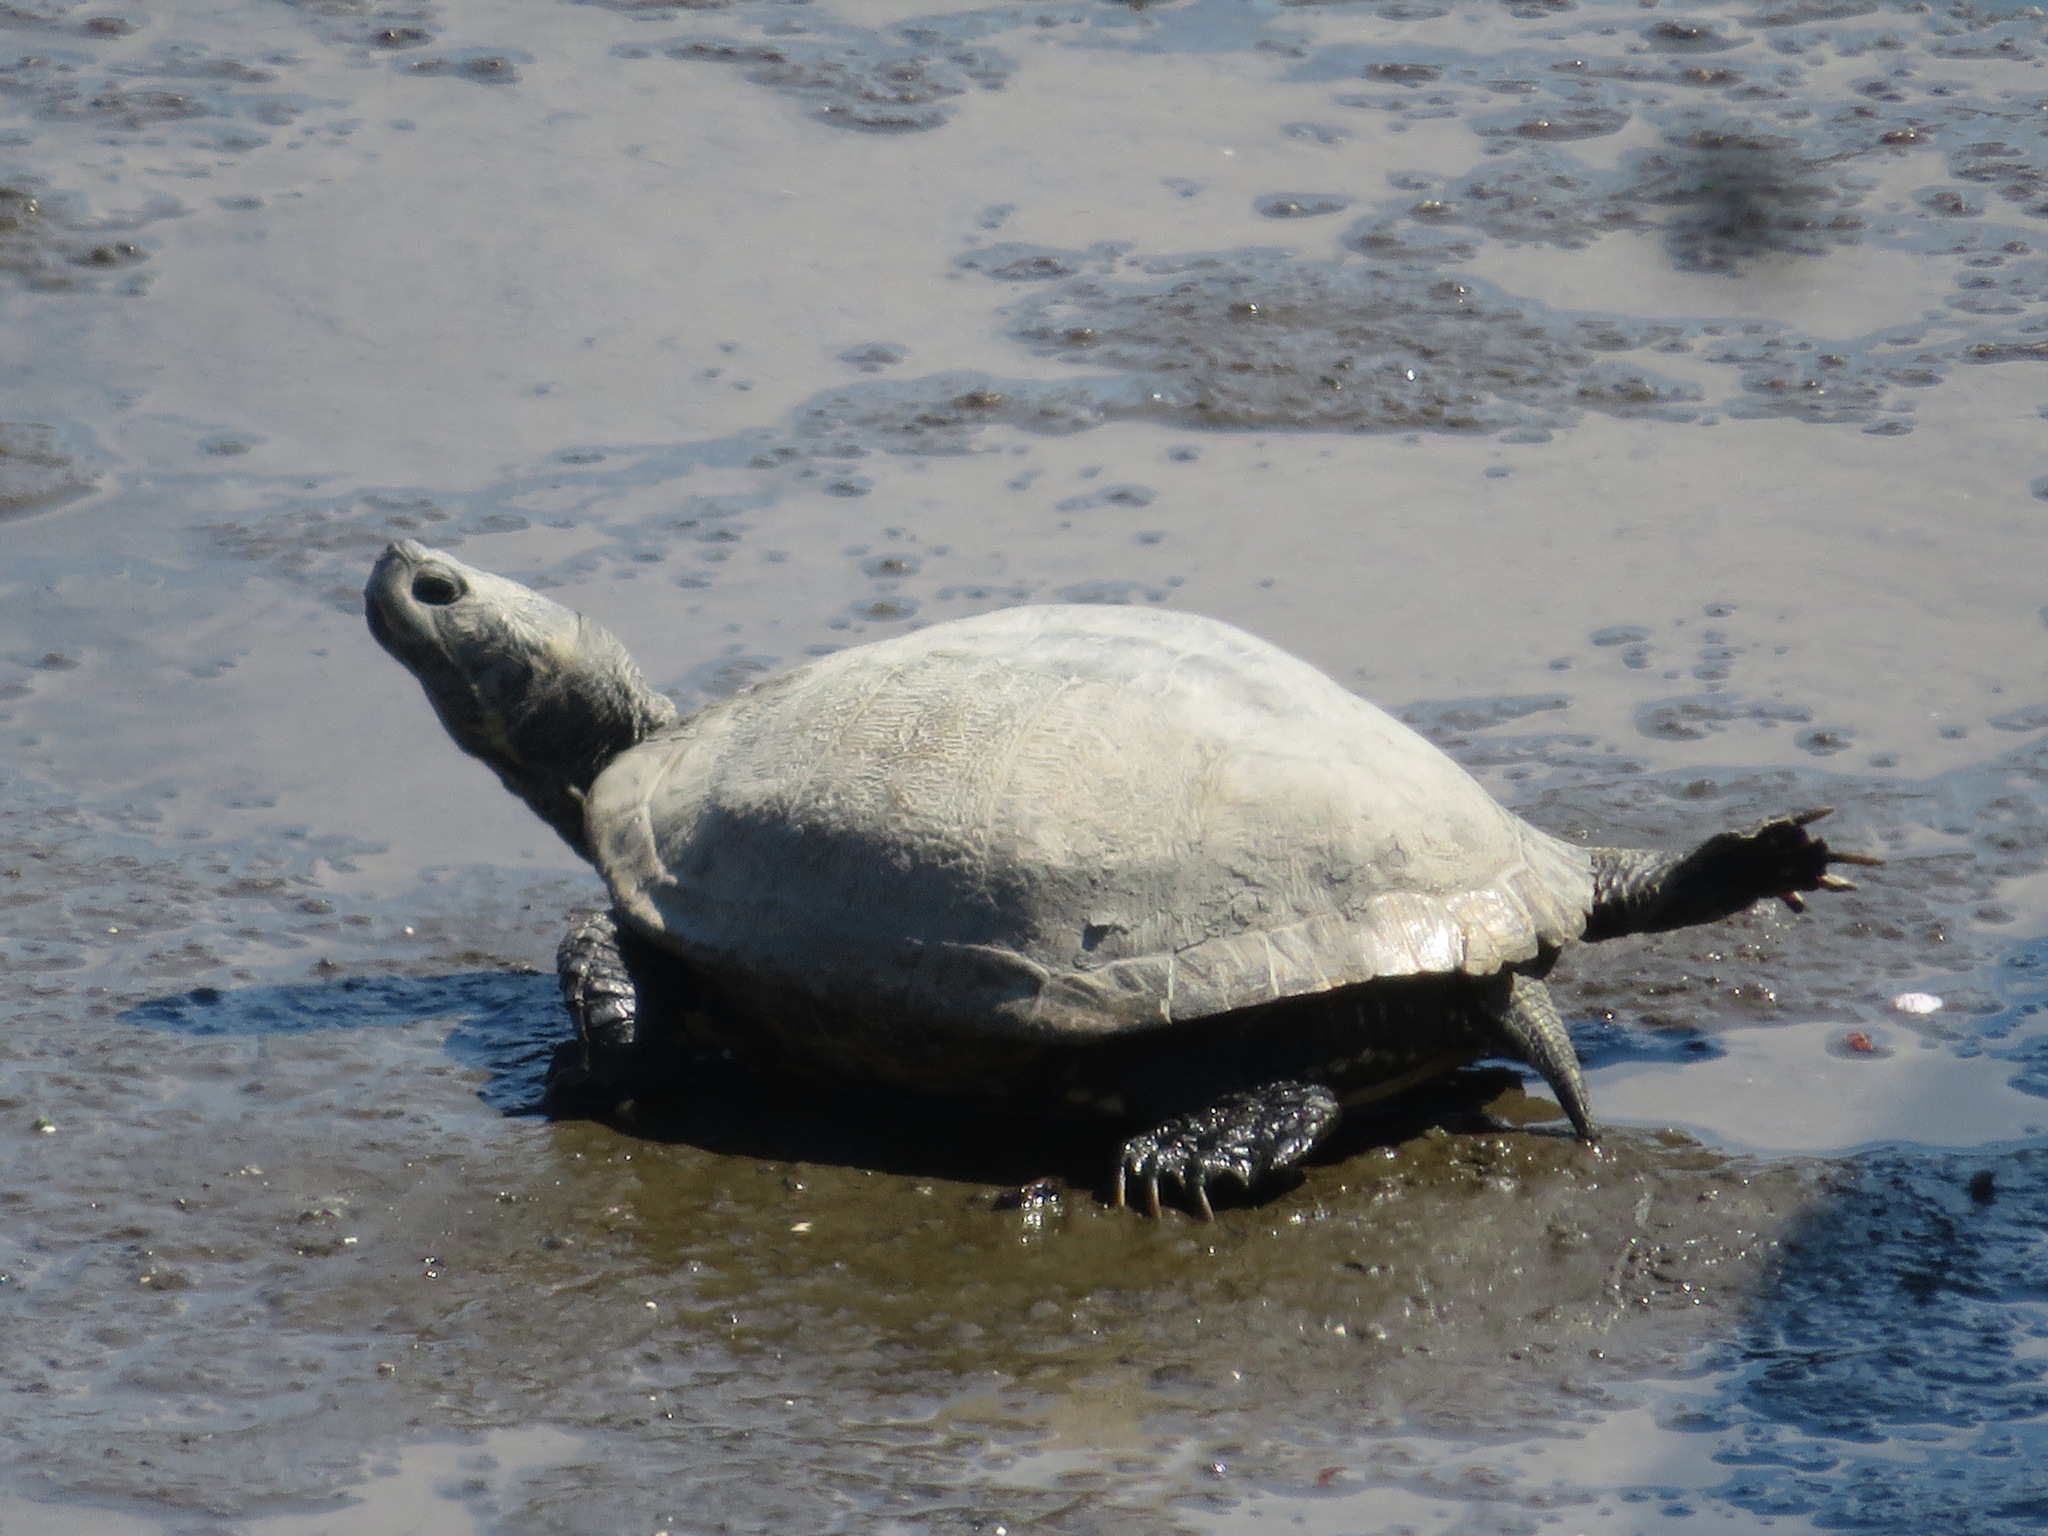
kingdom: Animalia
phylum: Chordata
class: Testudines
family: Emydidae
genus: Trachemys
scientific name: Trachemys scripta
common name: Slider
